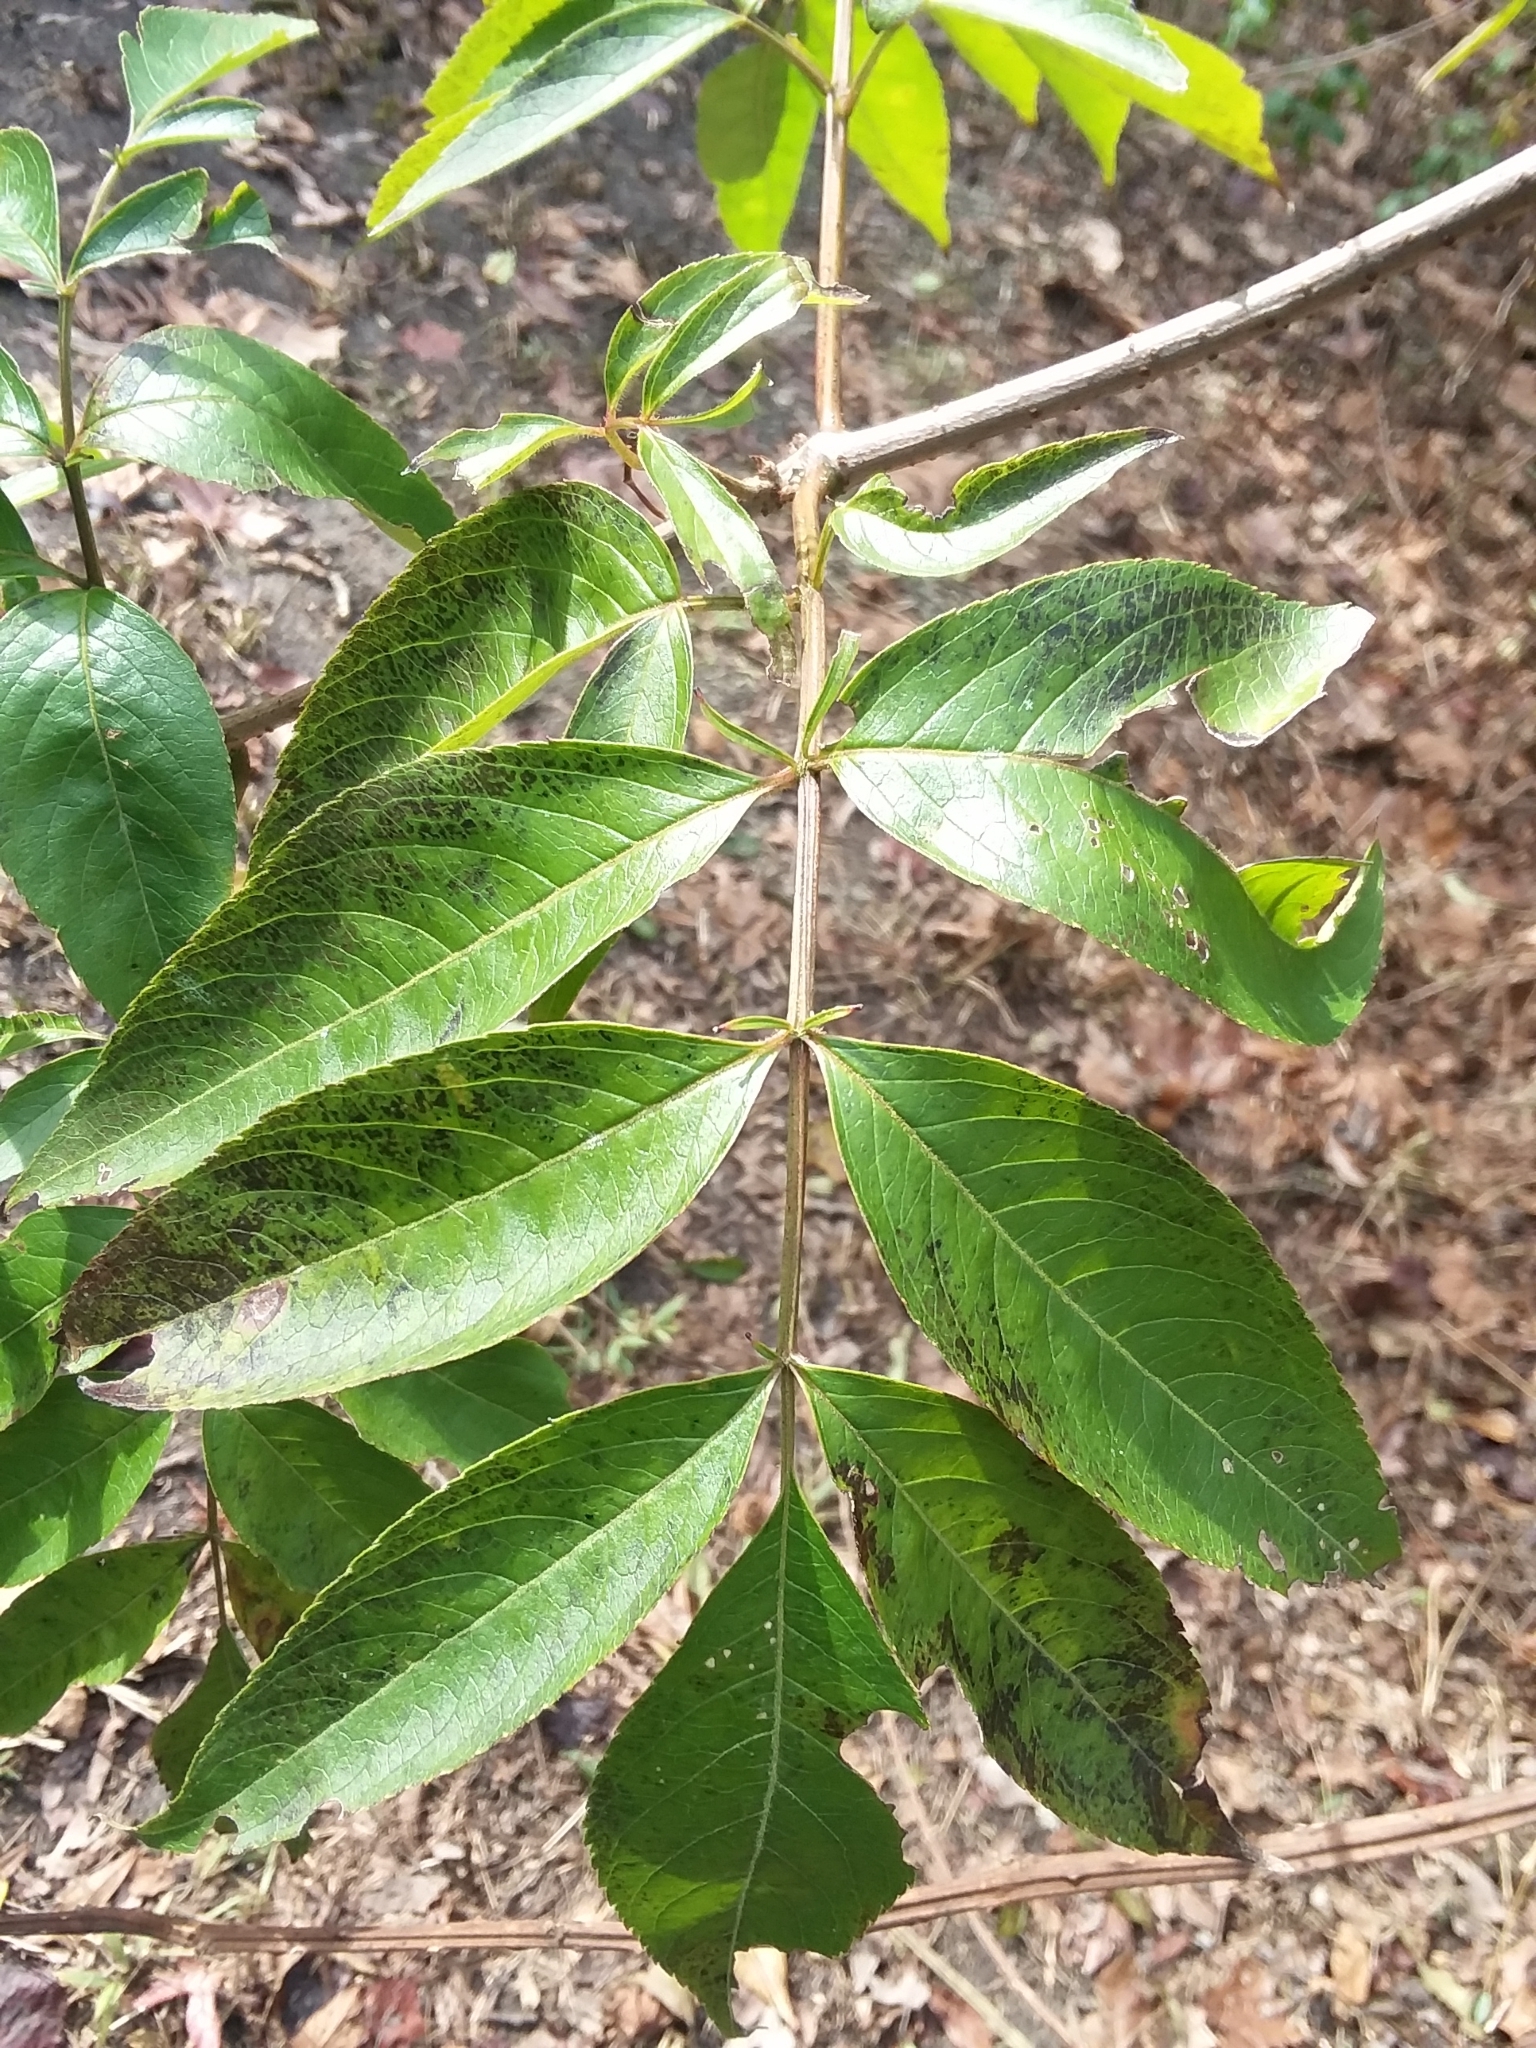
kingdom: Plantae
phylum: Tracheophyta
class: Magnoliopsida
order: Dipsacales
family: Viburnaceae
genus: Sambucus
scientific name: Sambucus canadensis
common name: American elder
